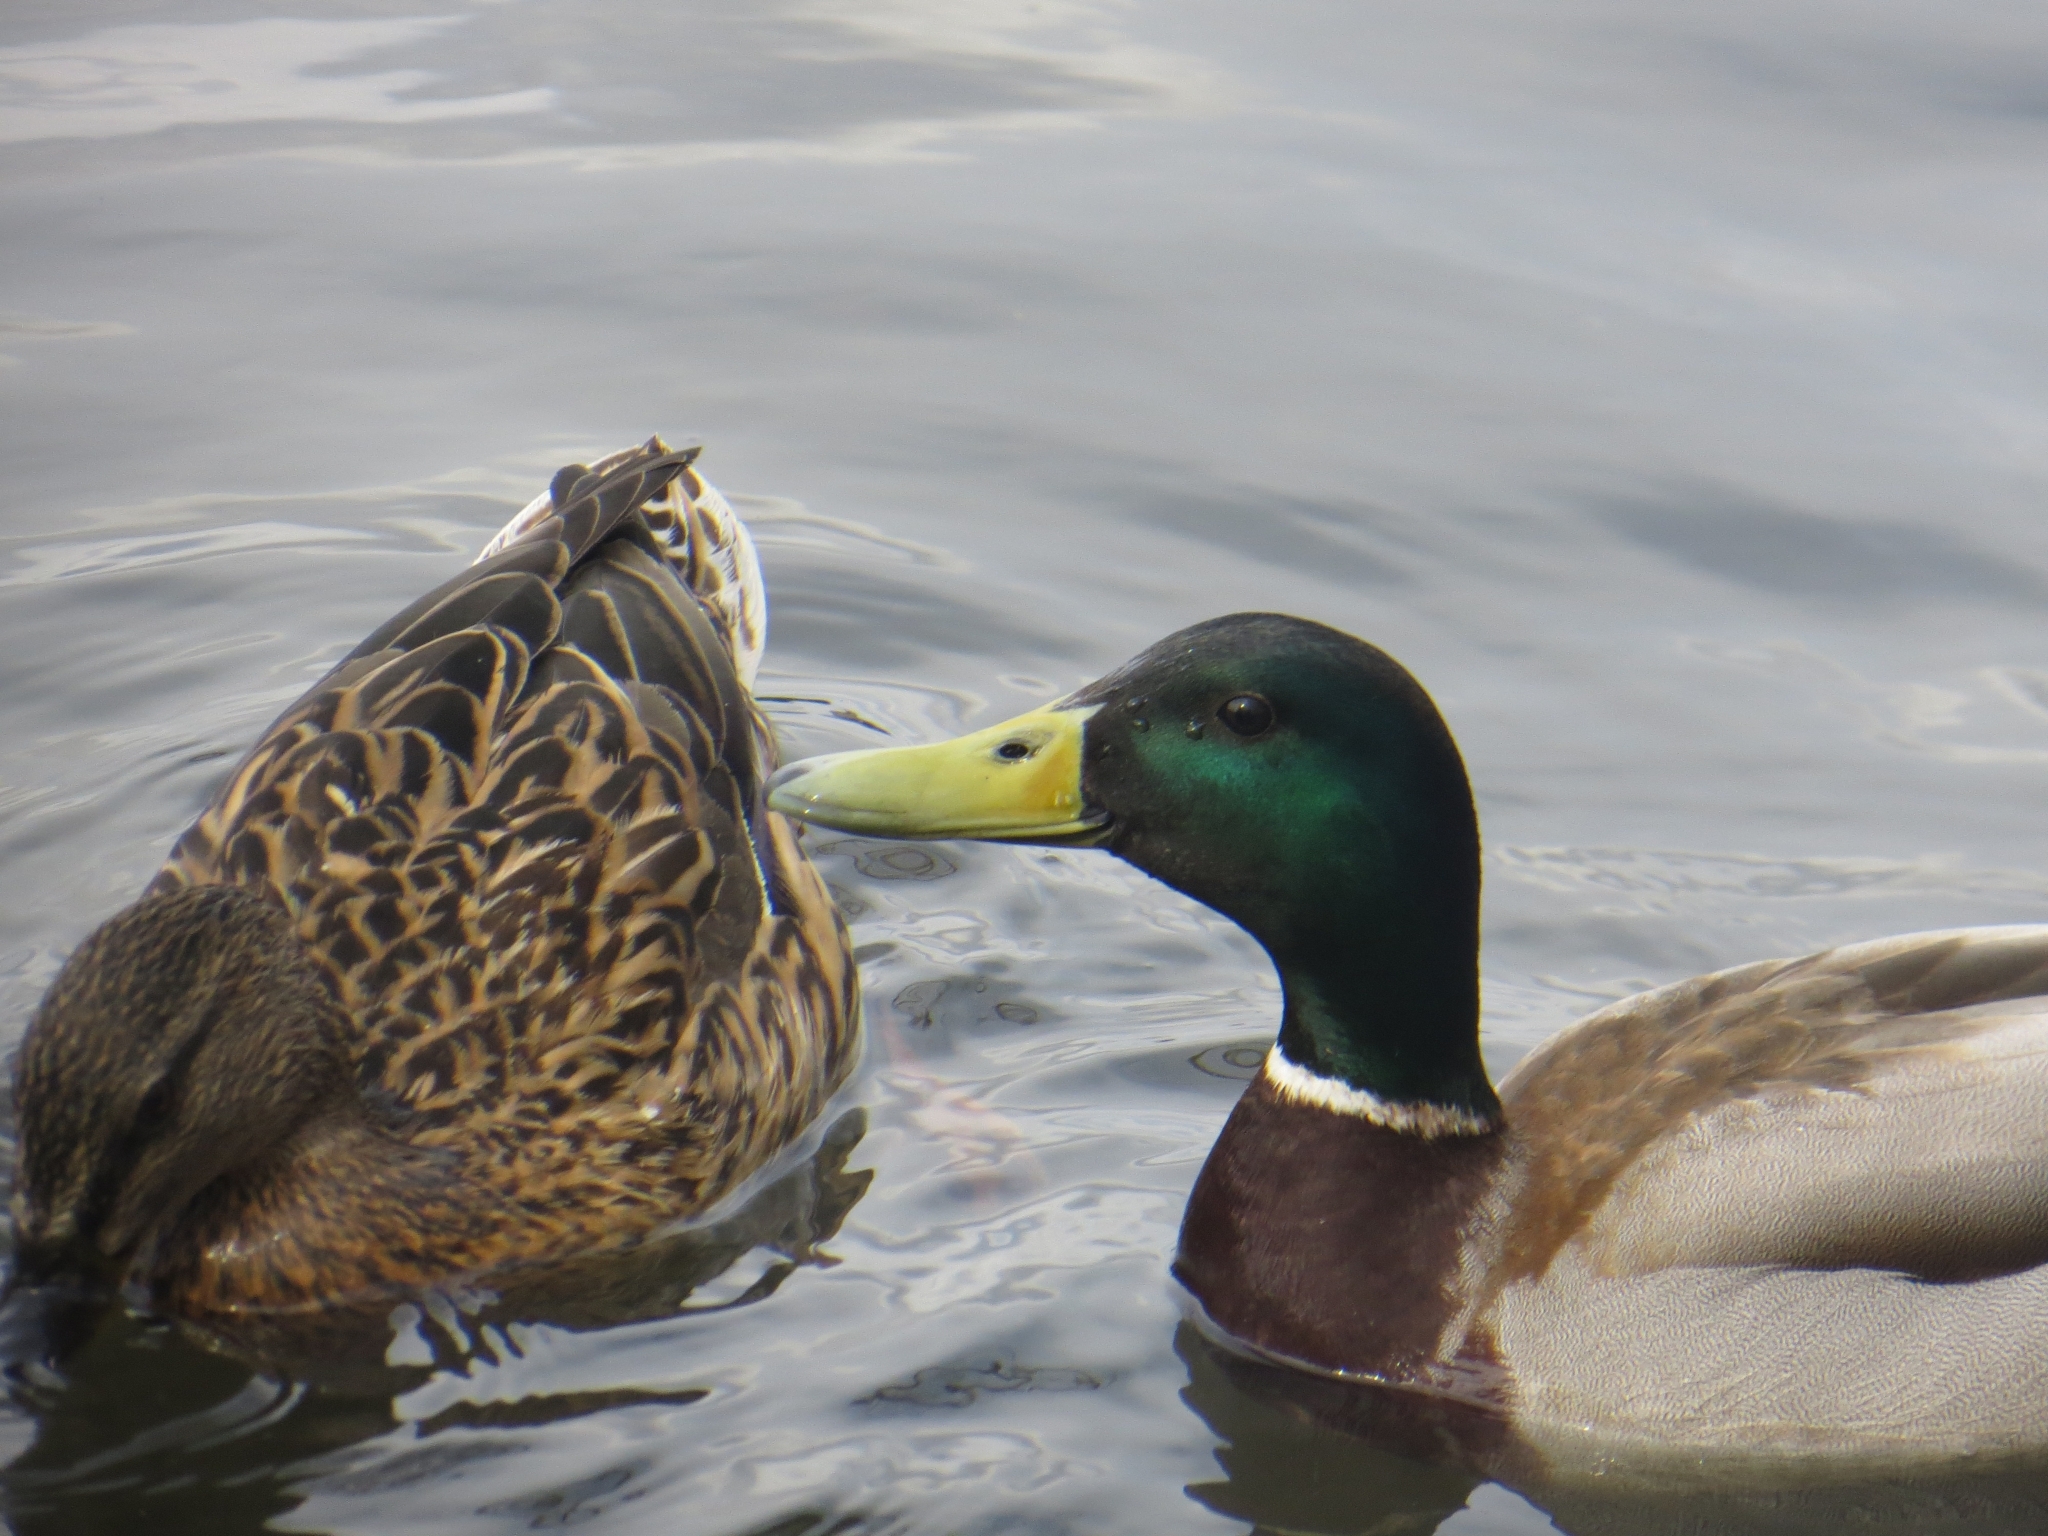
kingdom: Animalia
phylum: Chordata
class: Aves
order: Anseriformes
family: Anatidae
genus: Anas
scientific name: Anas platyrhynchos
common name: Mallard
